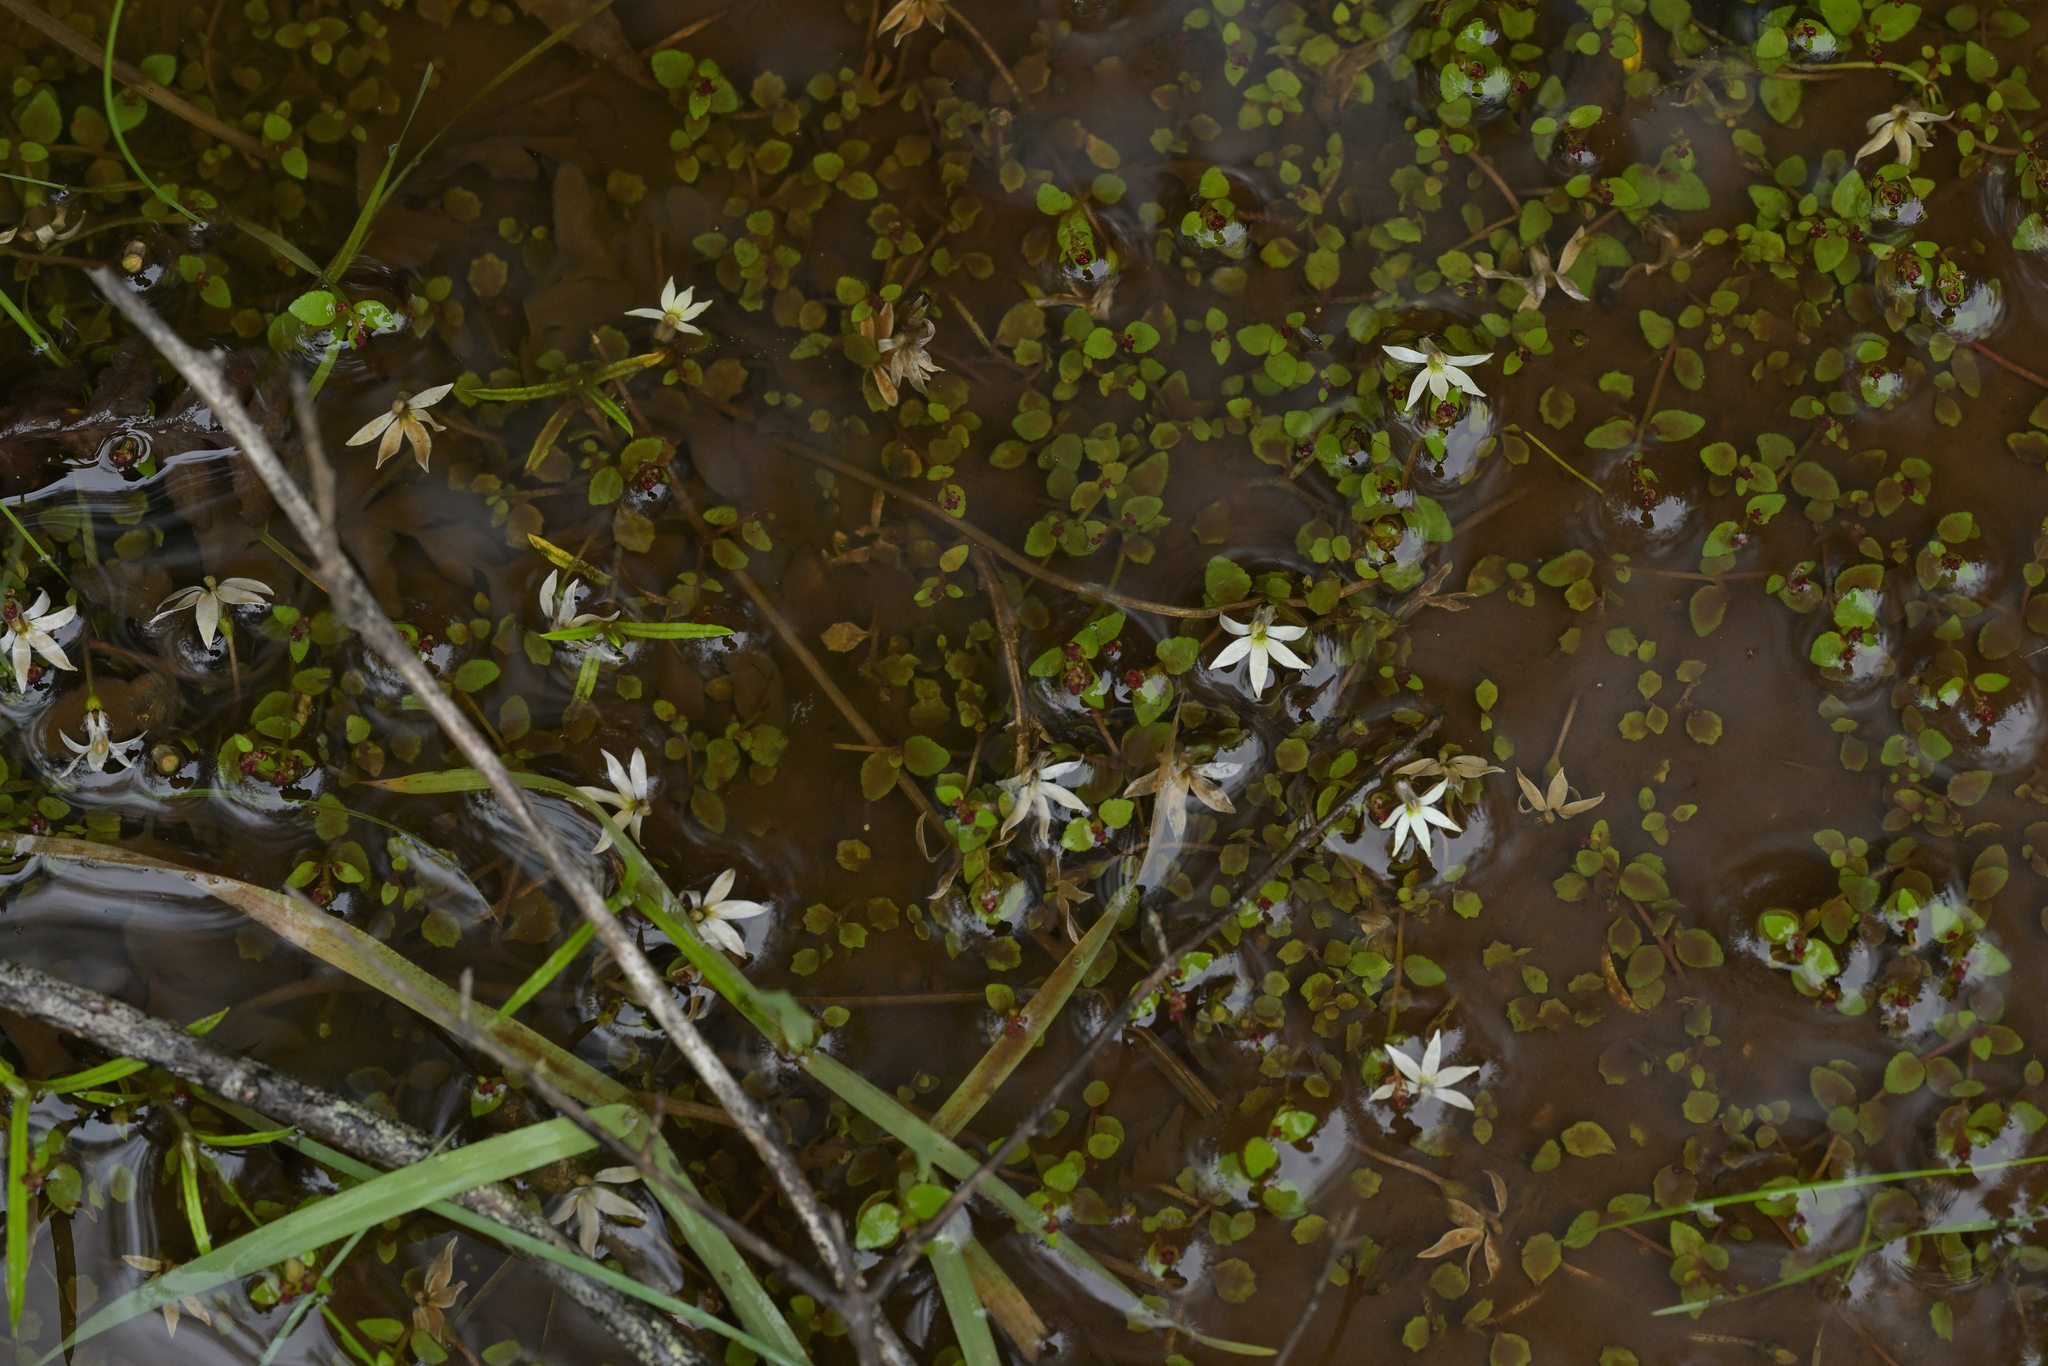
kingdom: Plantae
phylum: Tracheophyta
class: Magnoliopsida
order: Asterales
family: Campanulaceae
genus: Lobelia
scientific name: Lobelia angulata
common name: Lawn lobelia
